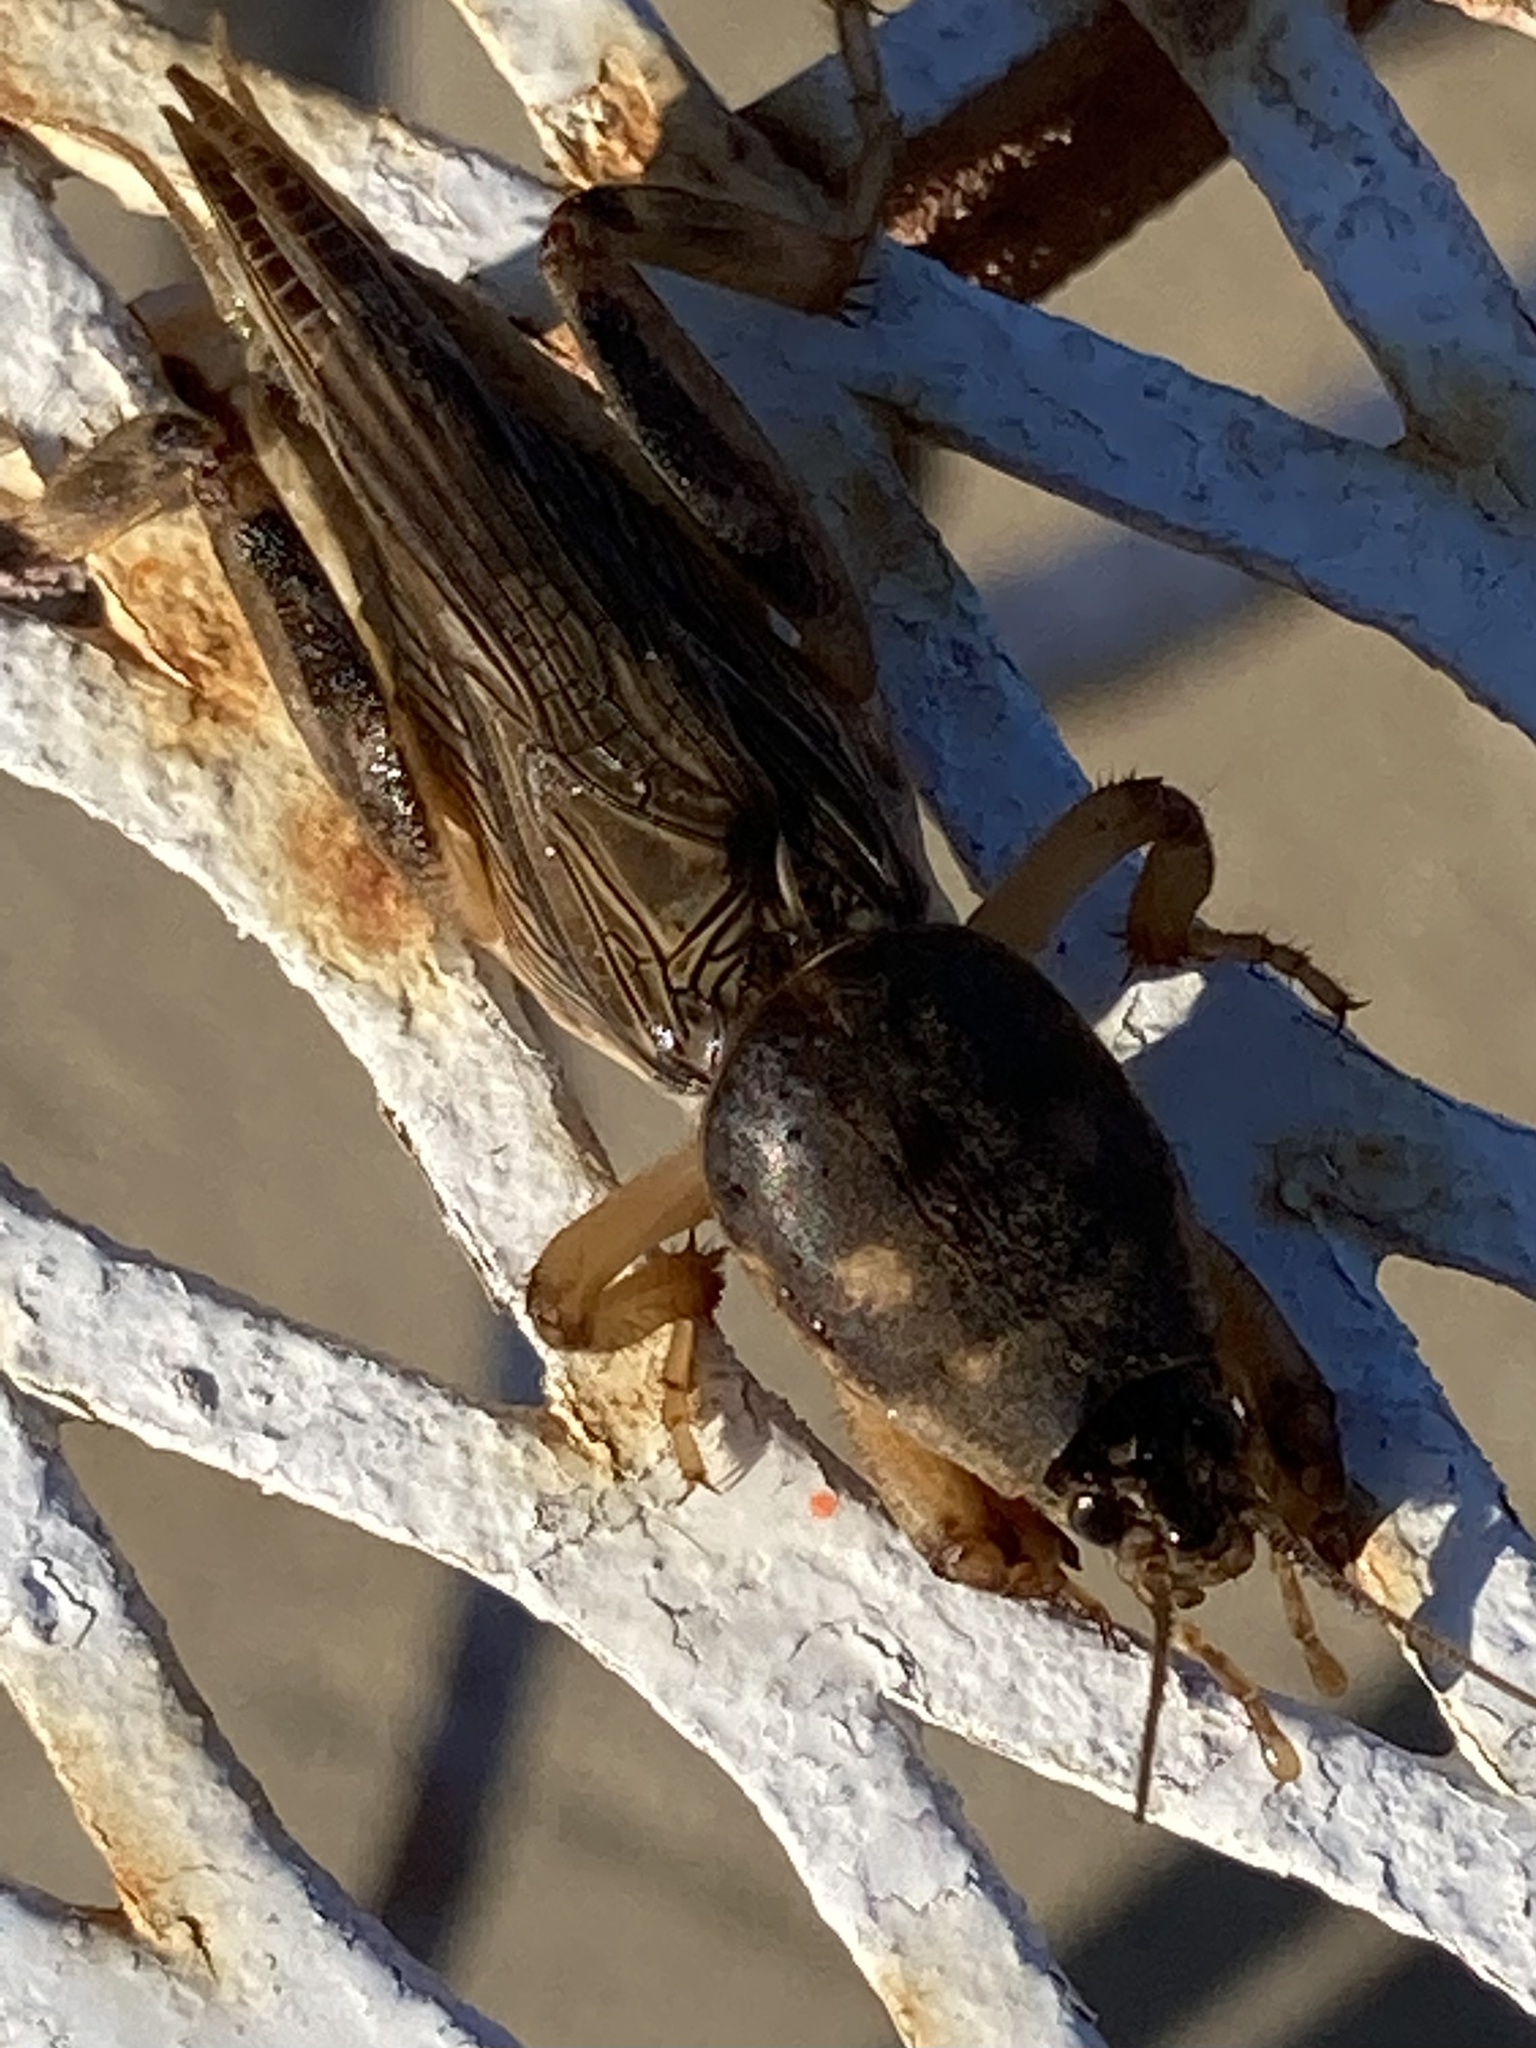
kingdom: Animalia
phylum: Arthropoda
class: Insecta
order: Orthoptera
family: Gryllotalpidae
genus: Neoscapteriscus
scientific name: Neoscapteriscus borellii
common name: Southern mole cricket
